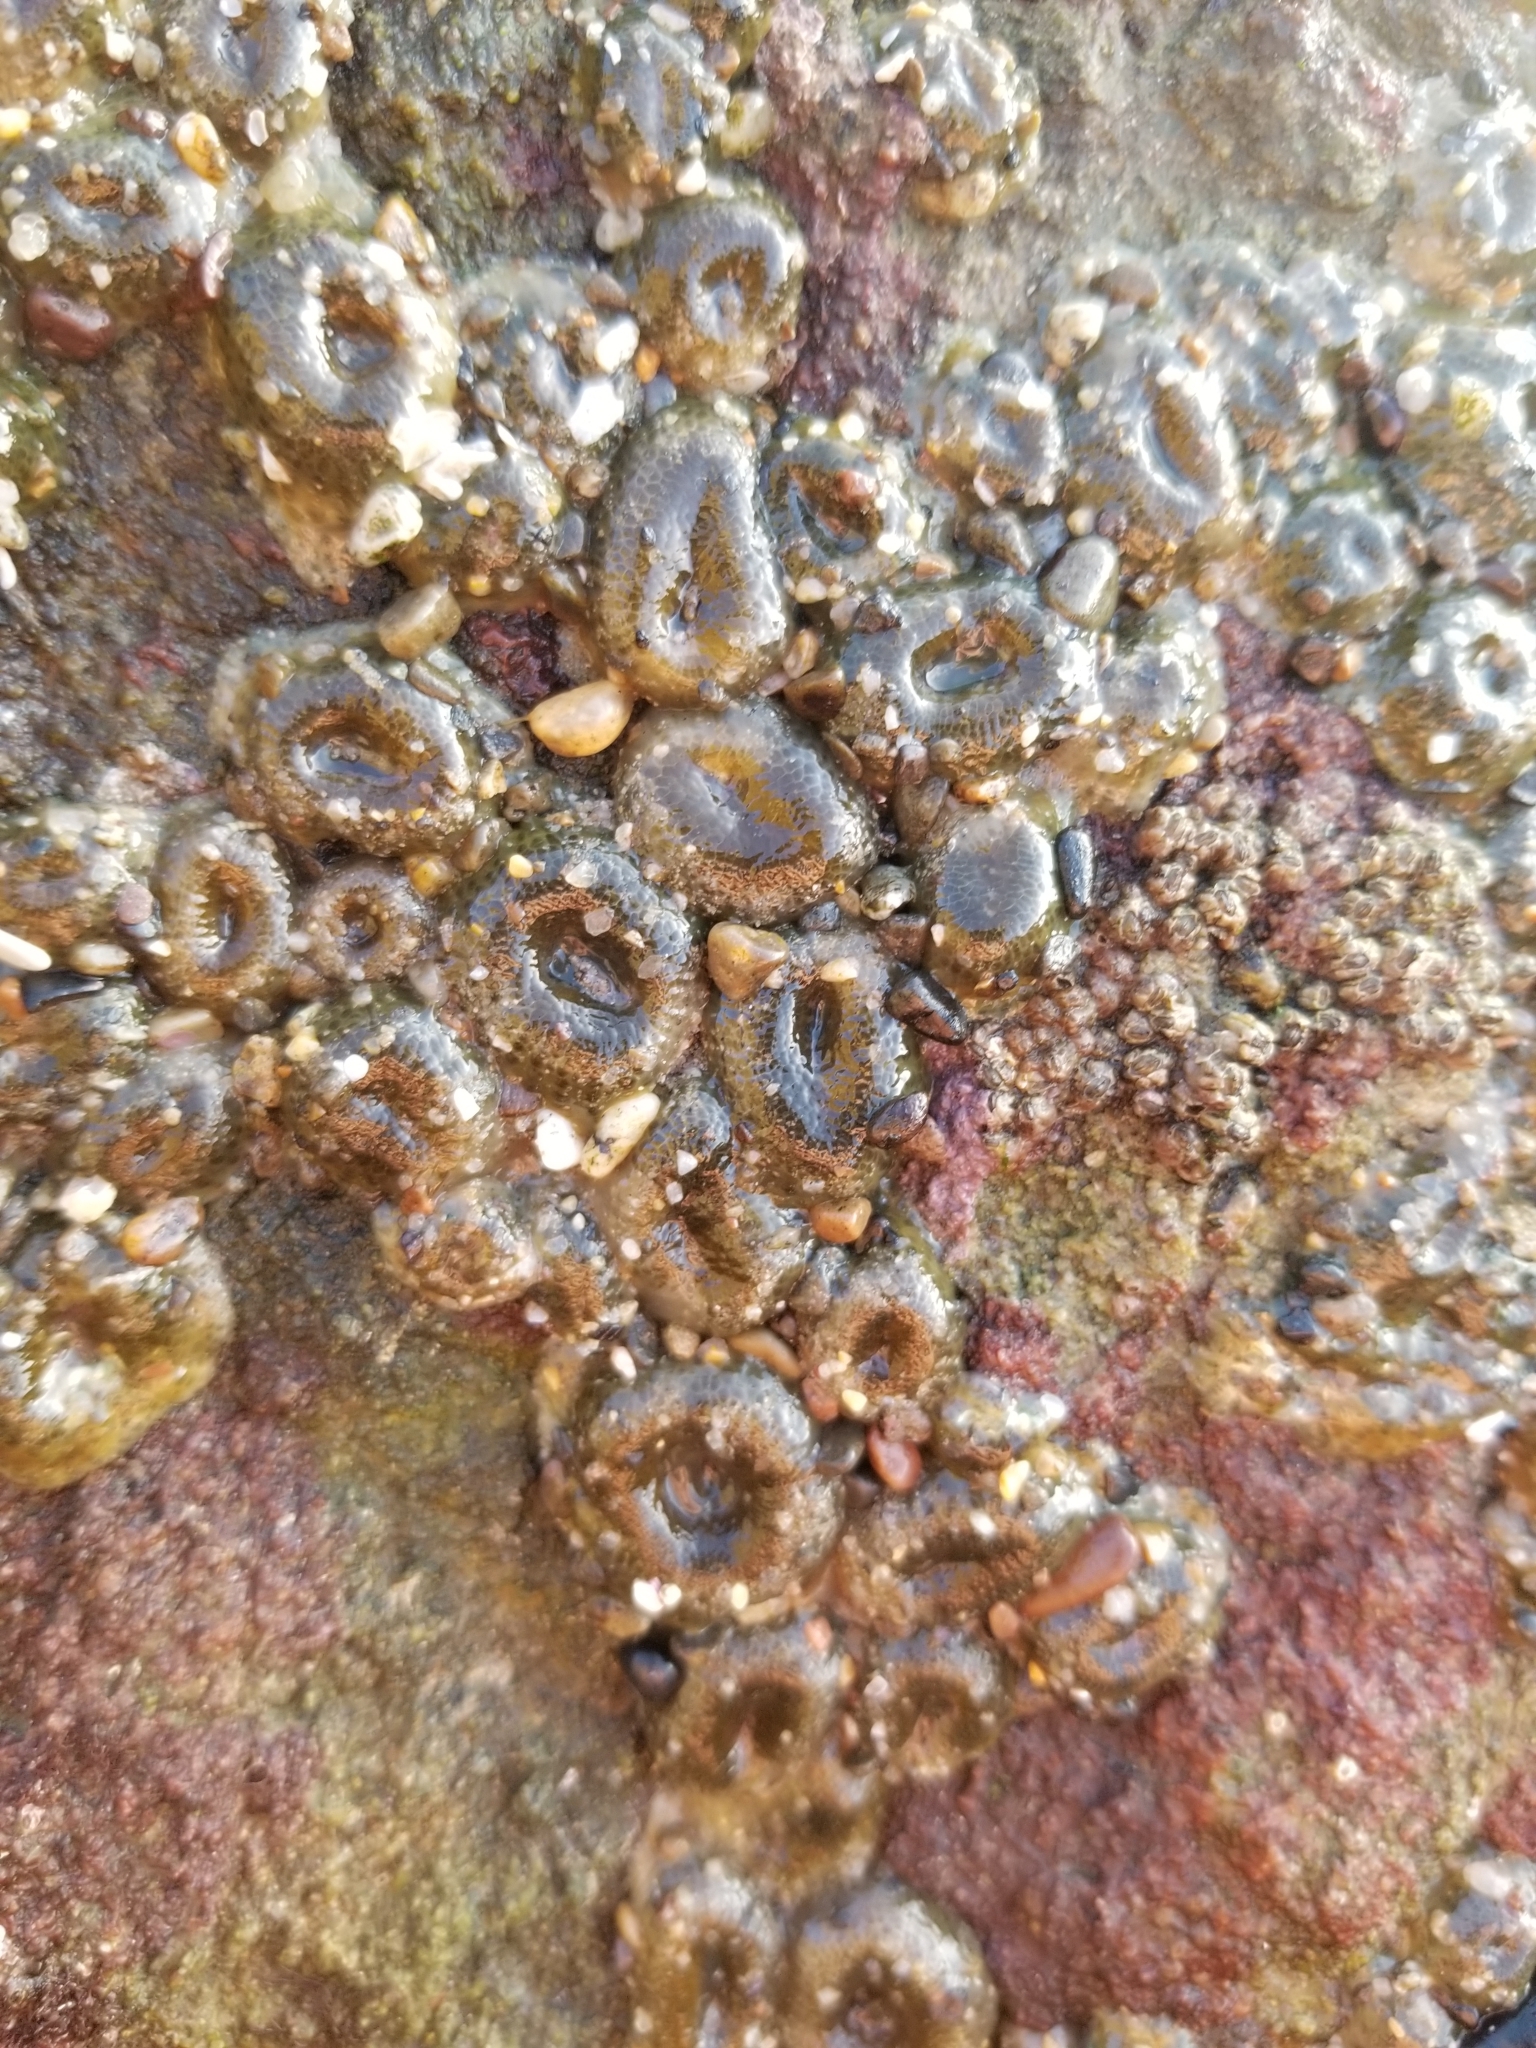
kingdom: Animalia
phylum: Cnidaria
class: Anthozoa
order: Actiniaria
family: Actiniidae
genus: Anthopleura
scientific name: Anthopleura elegantissima
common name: Clonal anemone
